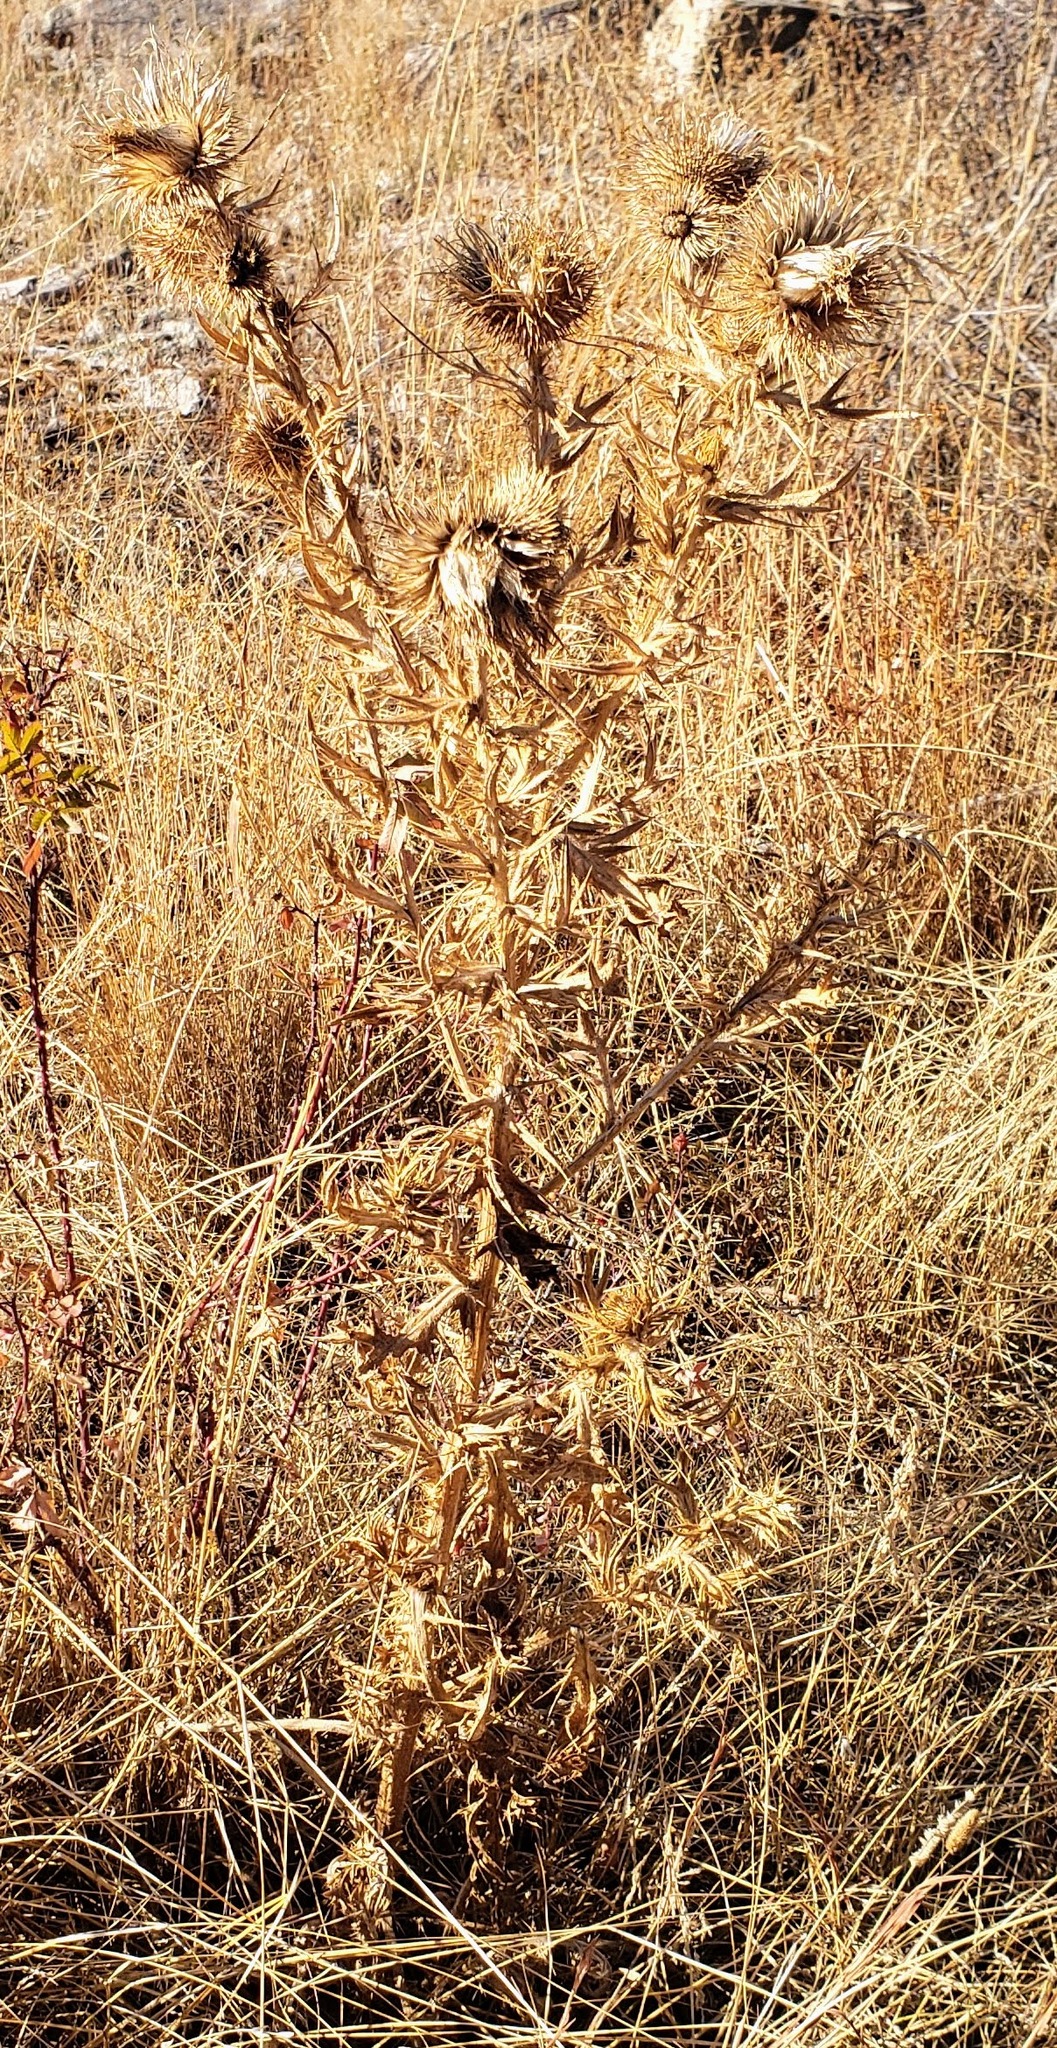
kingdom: Plantae
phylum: Tracheophyta
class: Magnoliopsida
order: Asterales
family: Asteraceae
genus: Cirsium
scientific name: Cirsium vulgare
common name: Bull thistle
